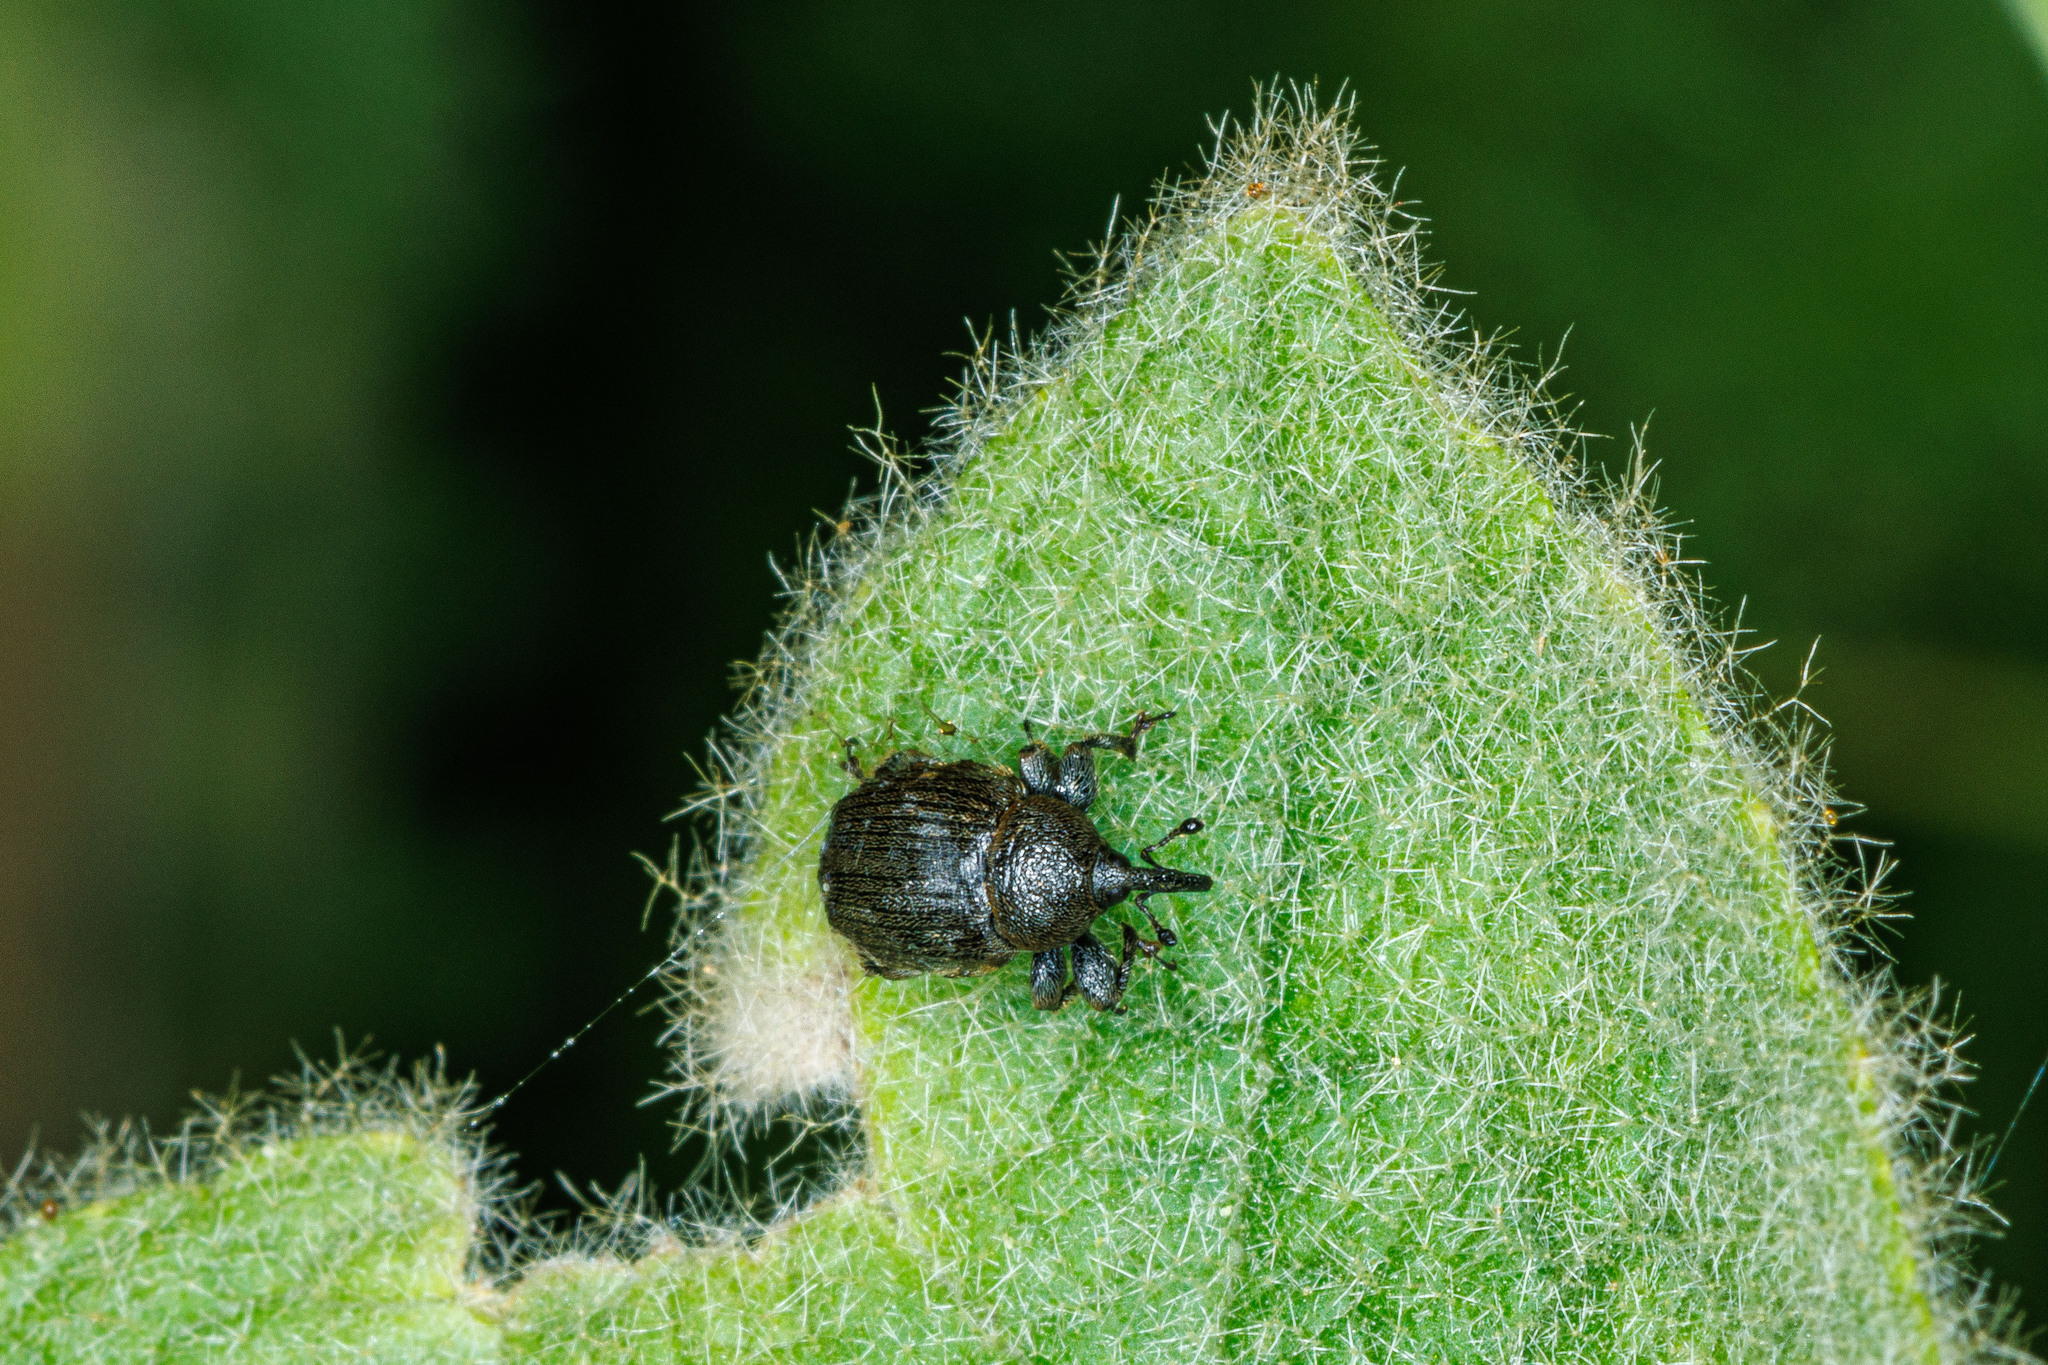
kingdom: Animalia
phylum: Arthropoda
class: Insecta
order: Coleoptera
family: Curculionidae
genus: Rhinusa
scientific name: Rhinusa tetra
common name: Weevil
